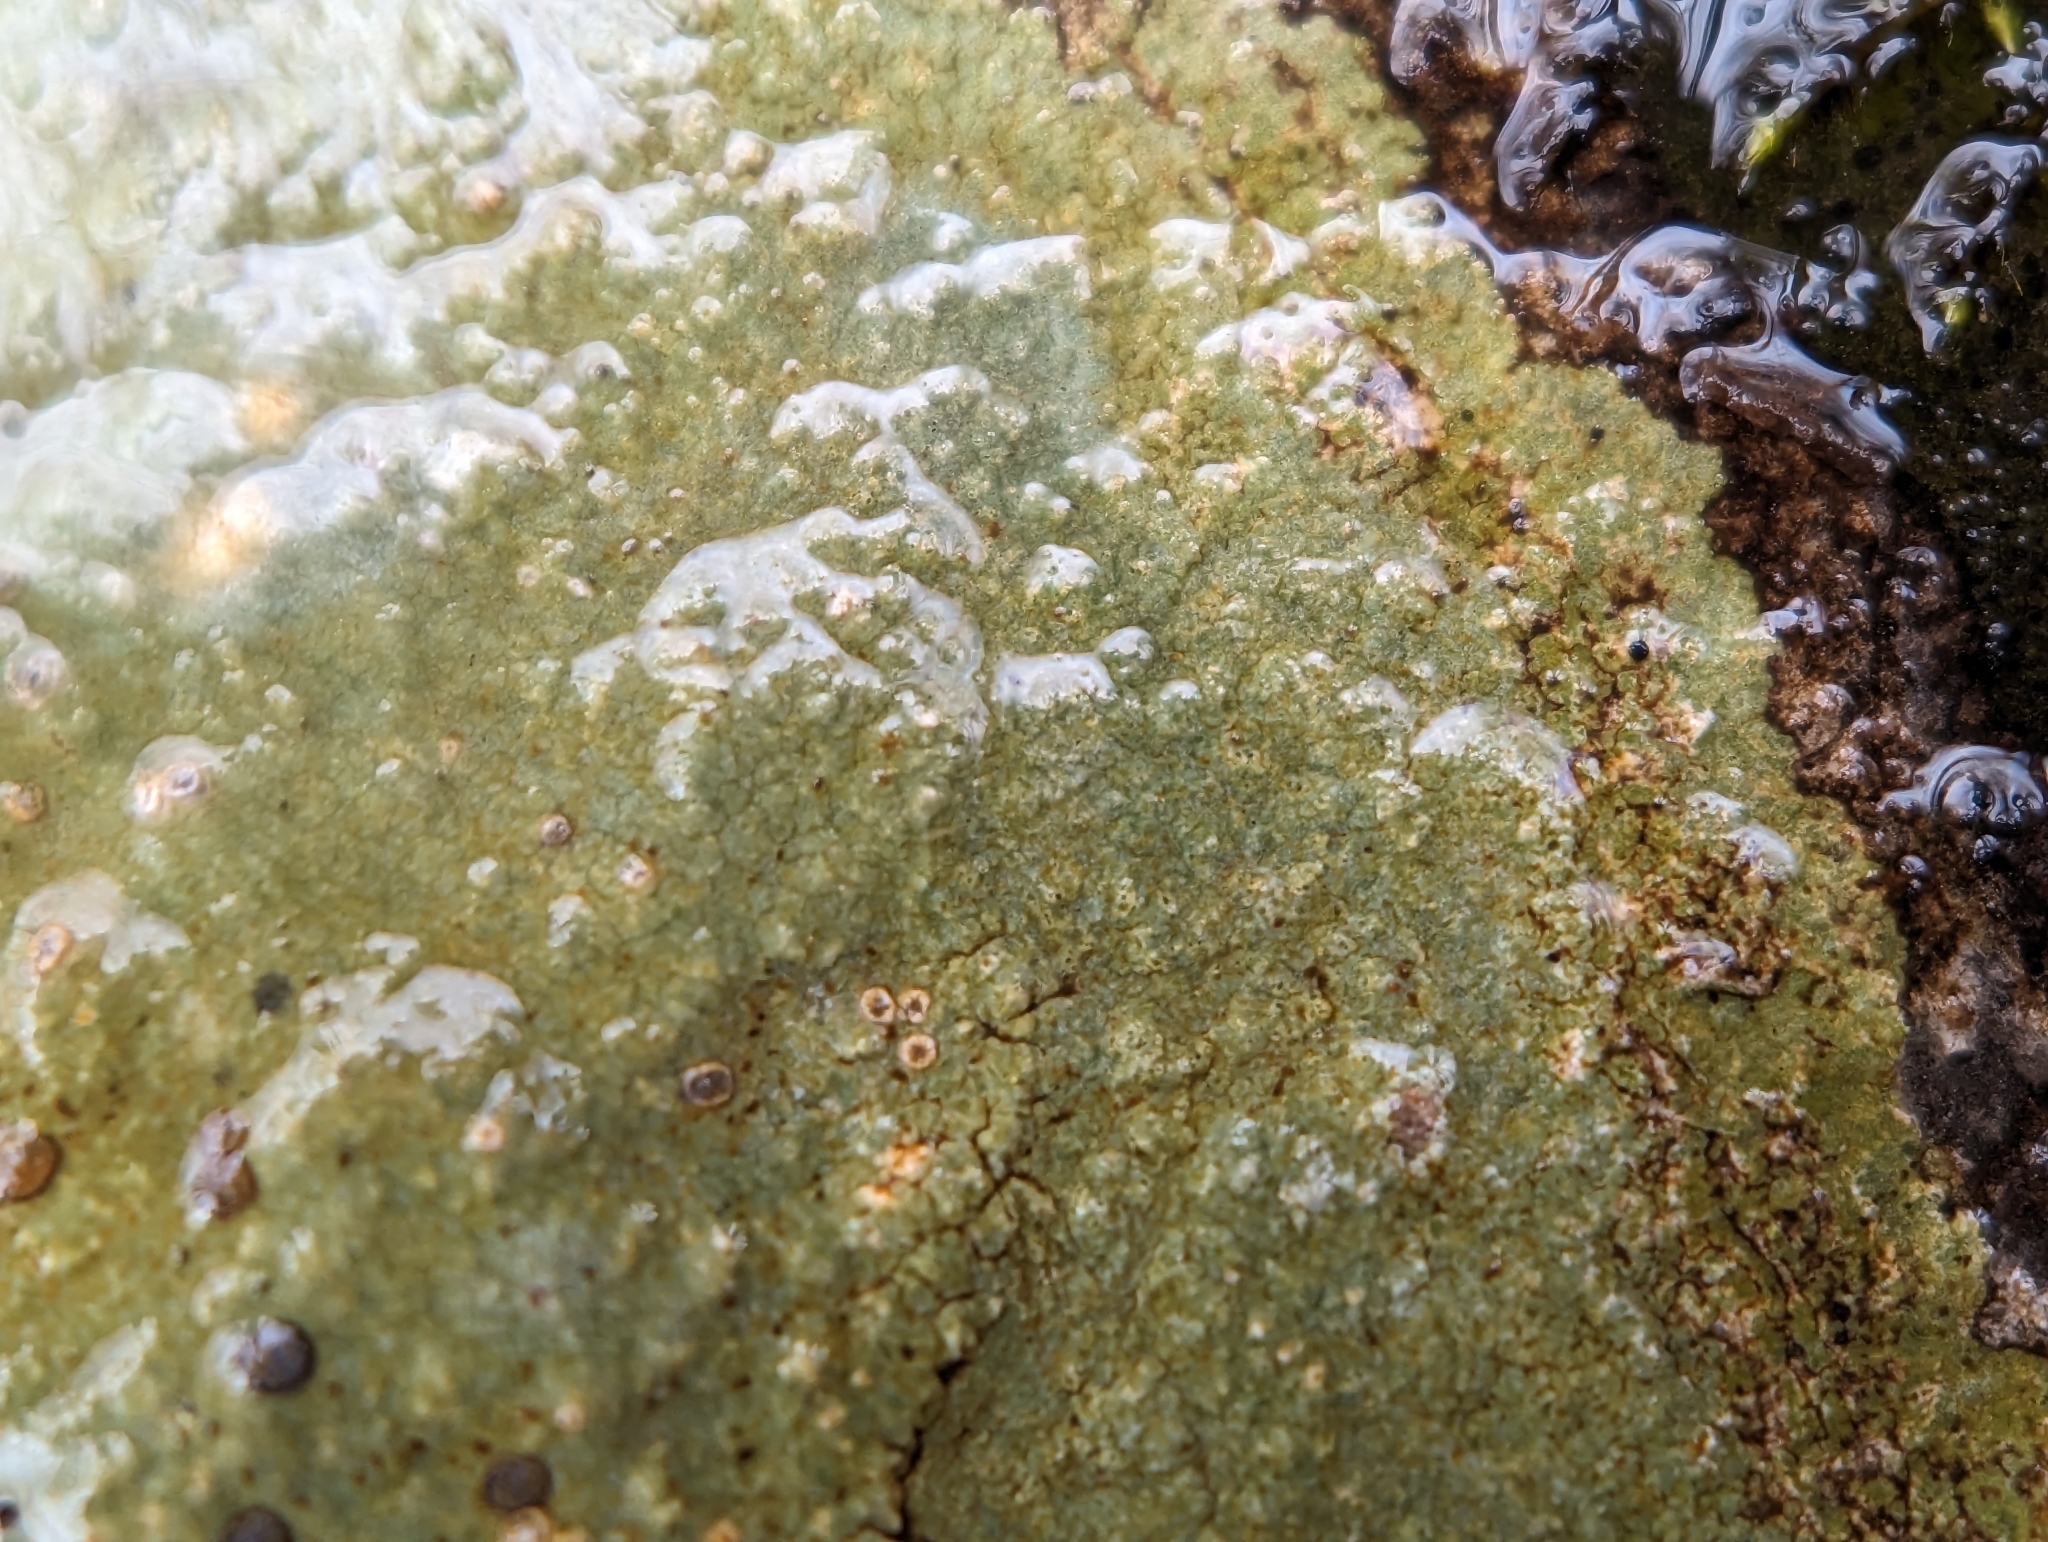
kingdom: Fungi
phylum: Ascomycota
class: Lecanoromycetes
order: Lecideales
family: Lecideaceae
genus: Porpidia
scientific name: Porpidia albocaerulescens
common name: Smokey-eyed boulder lichen
